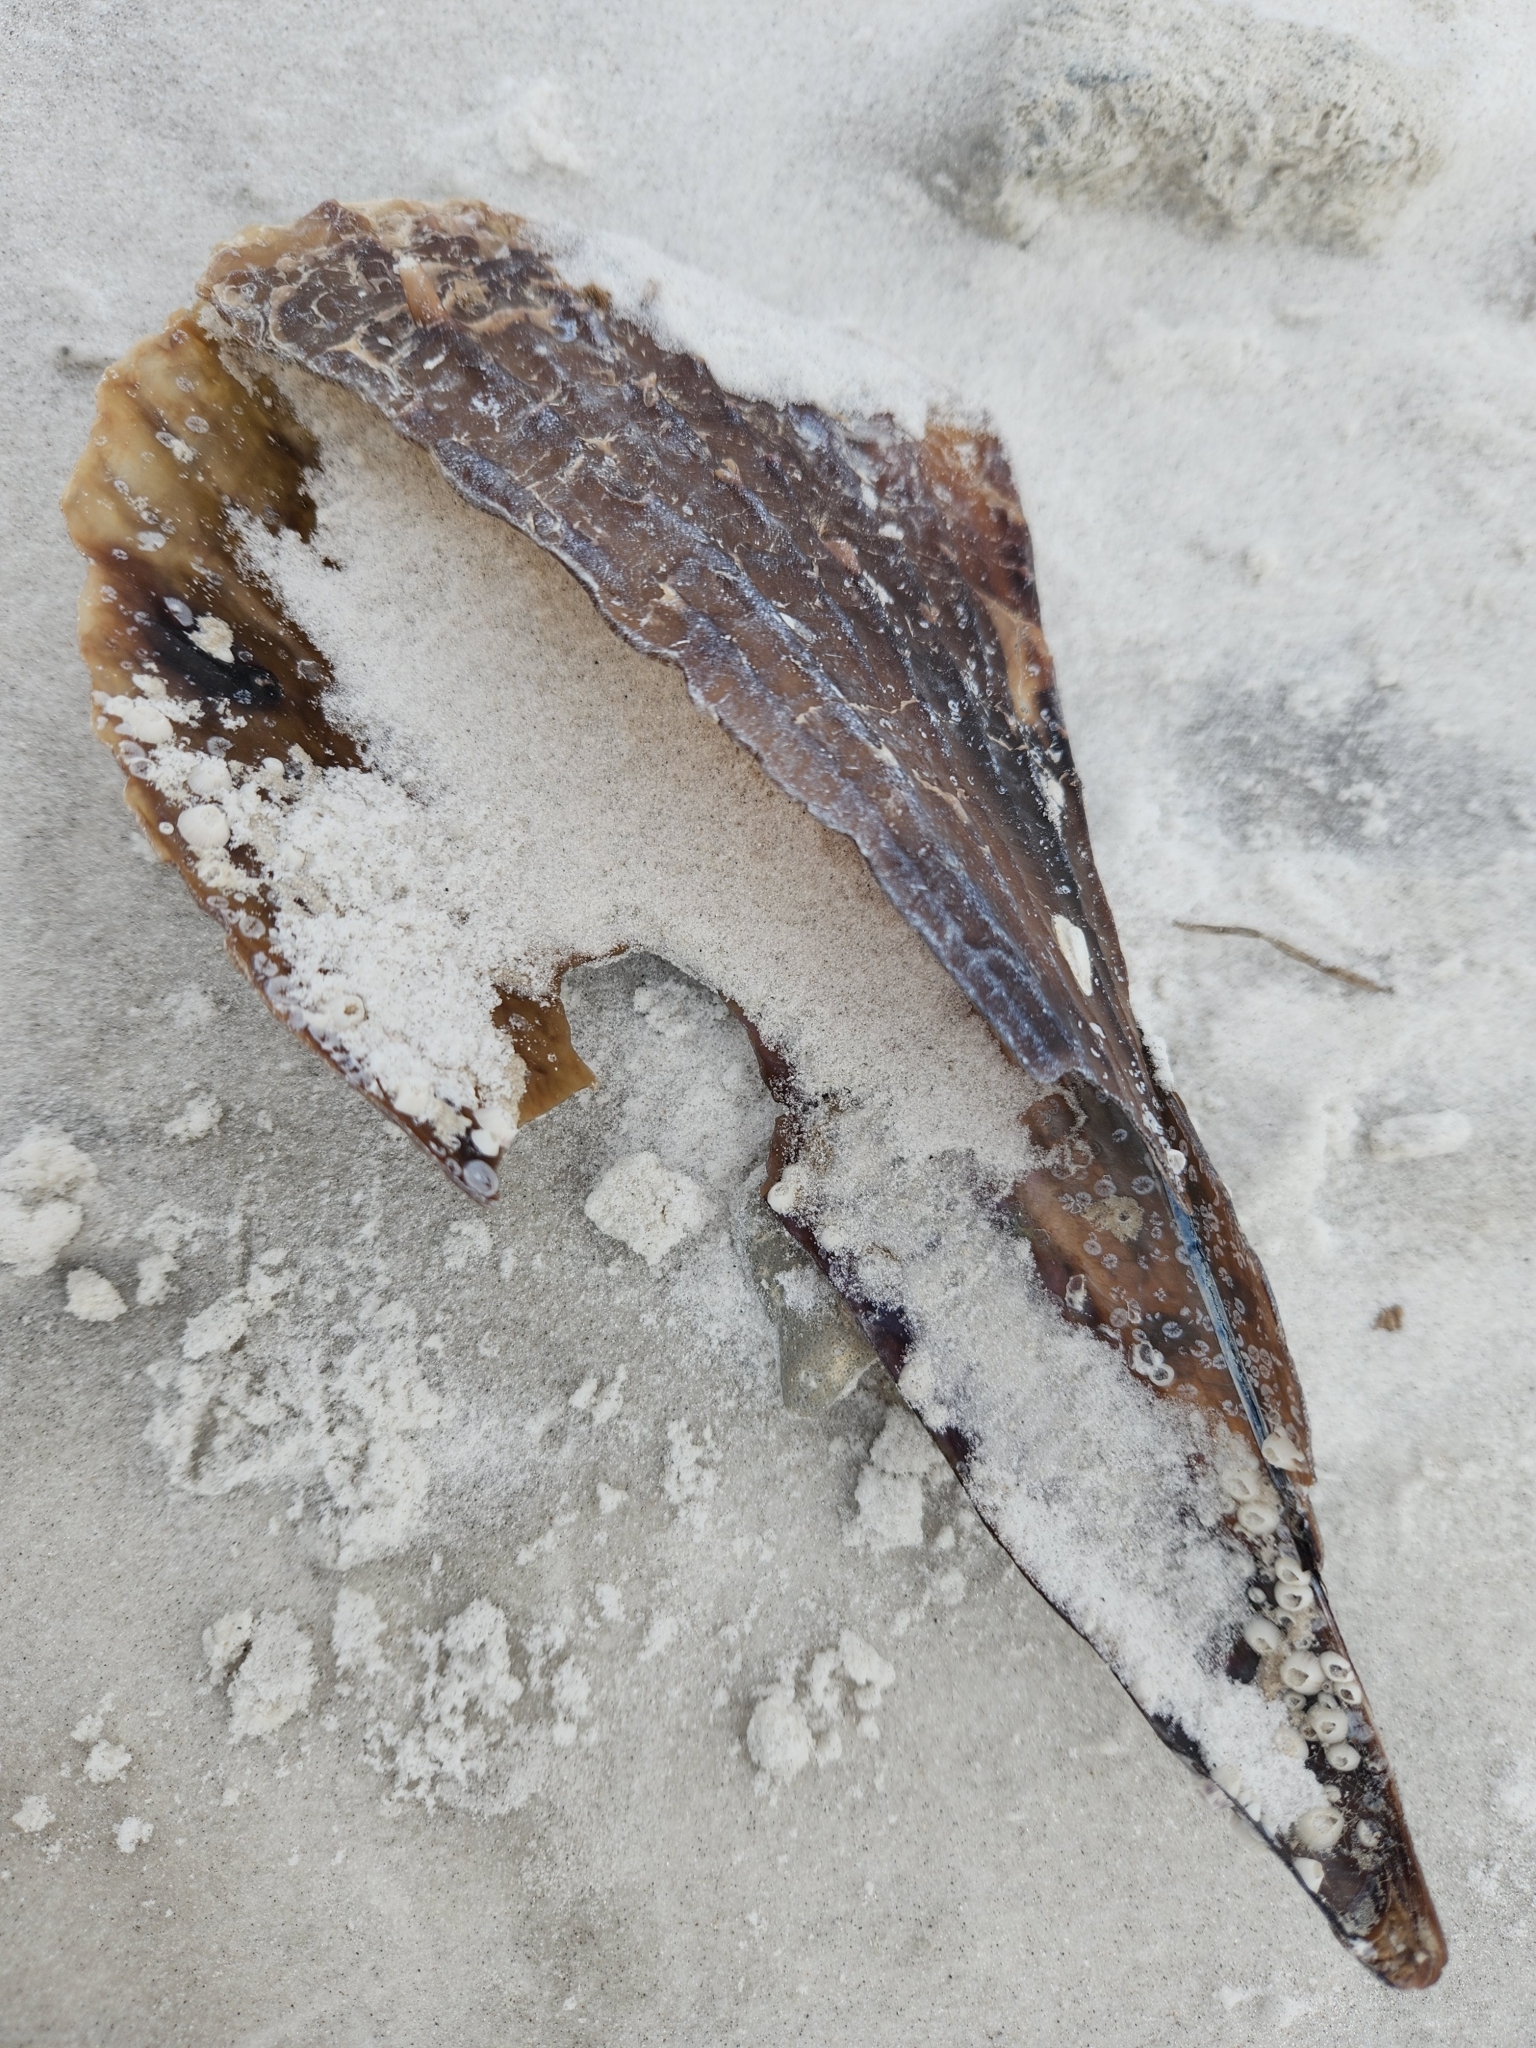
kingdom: Animalia
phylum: Mollusca
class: Bivalvia
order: Ostreida
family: Pinnidae
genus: Atrina
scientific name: Atrina rigida
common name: Stiff penshell
